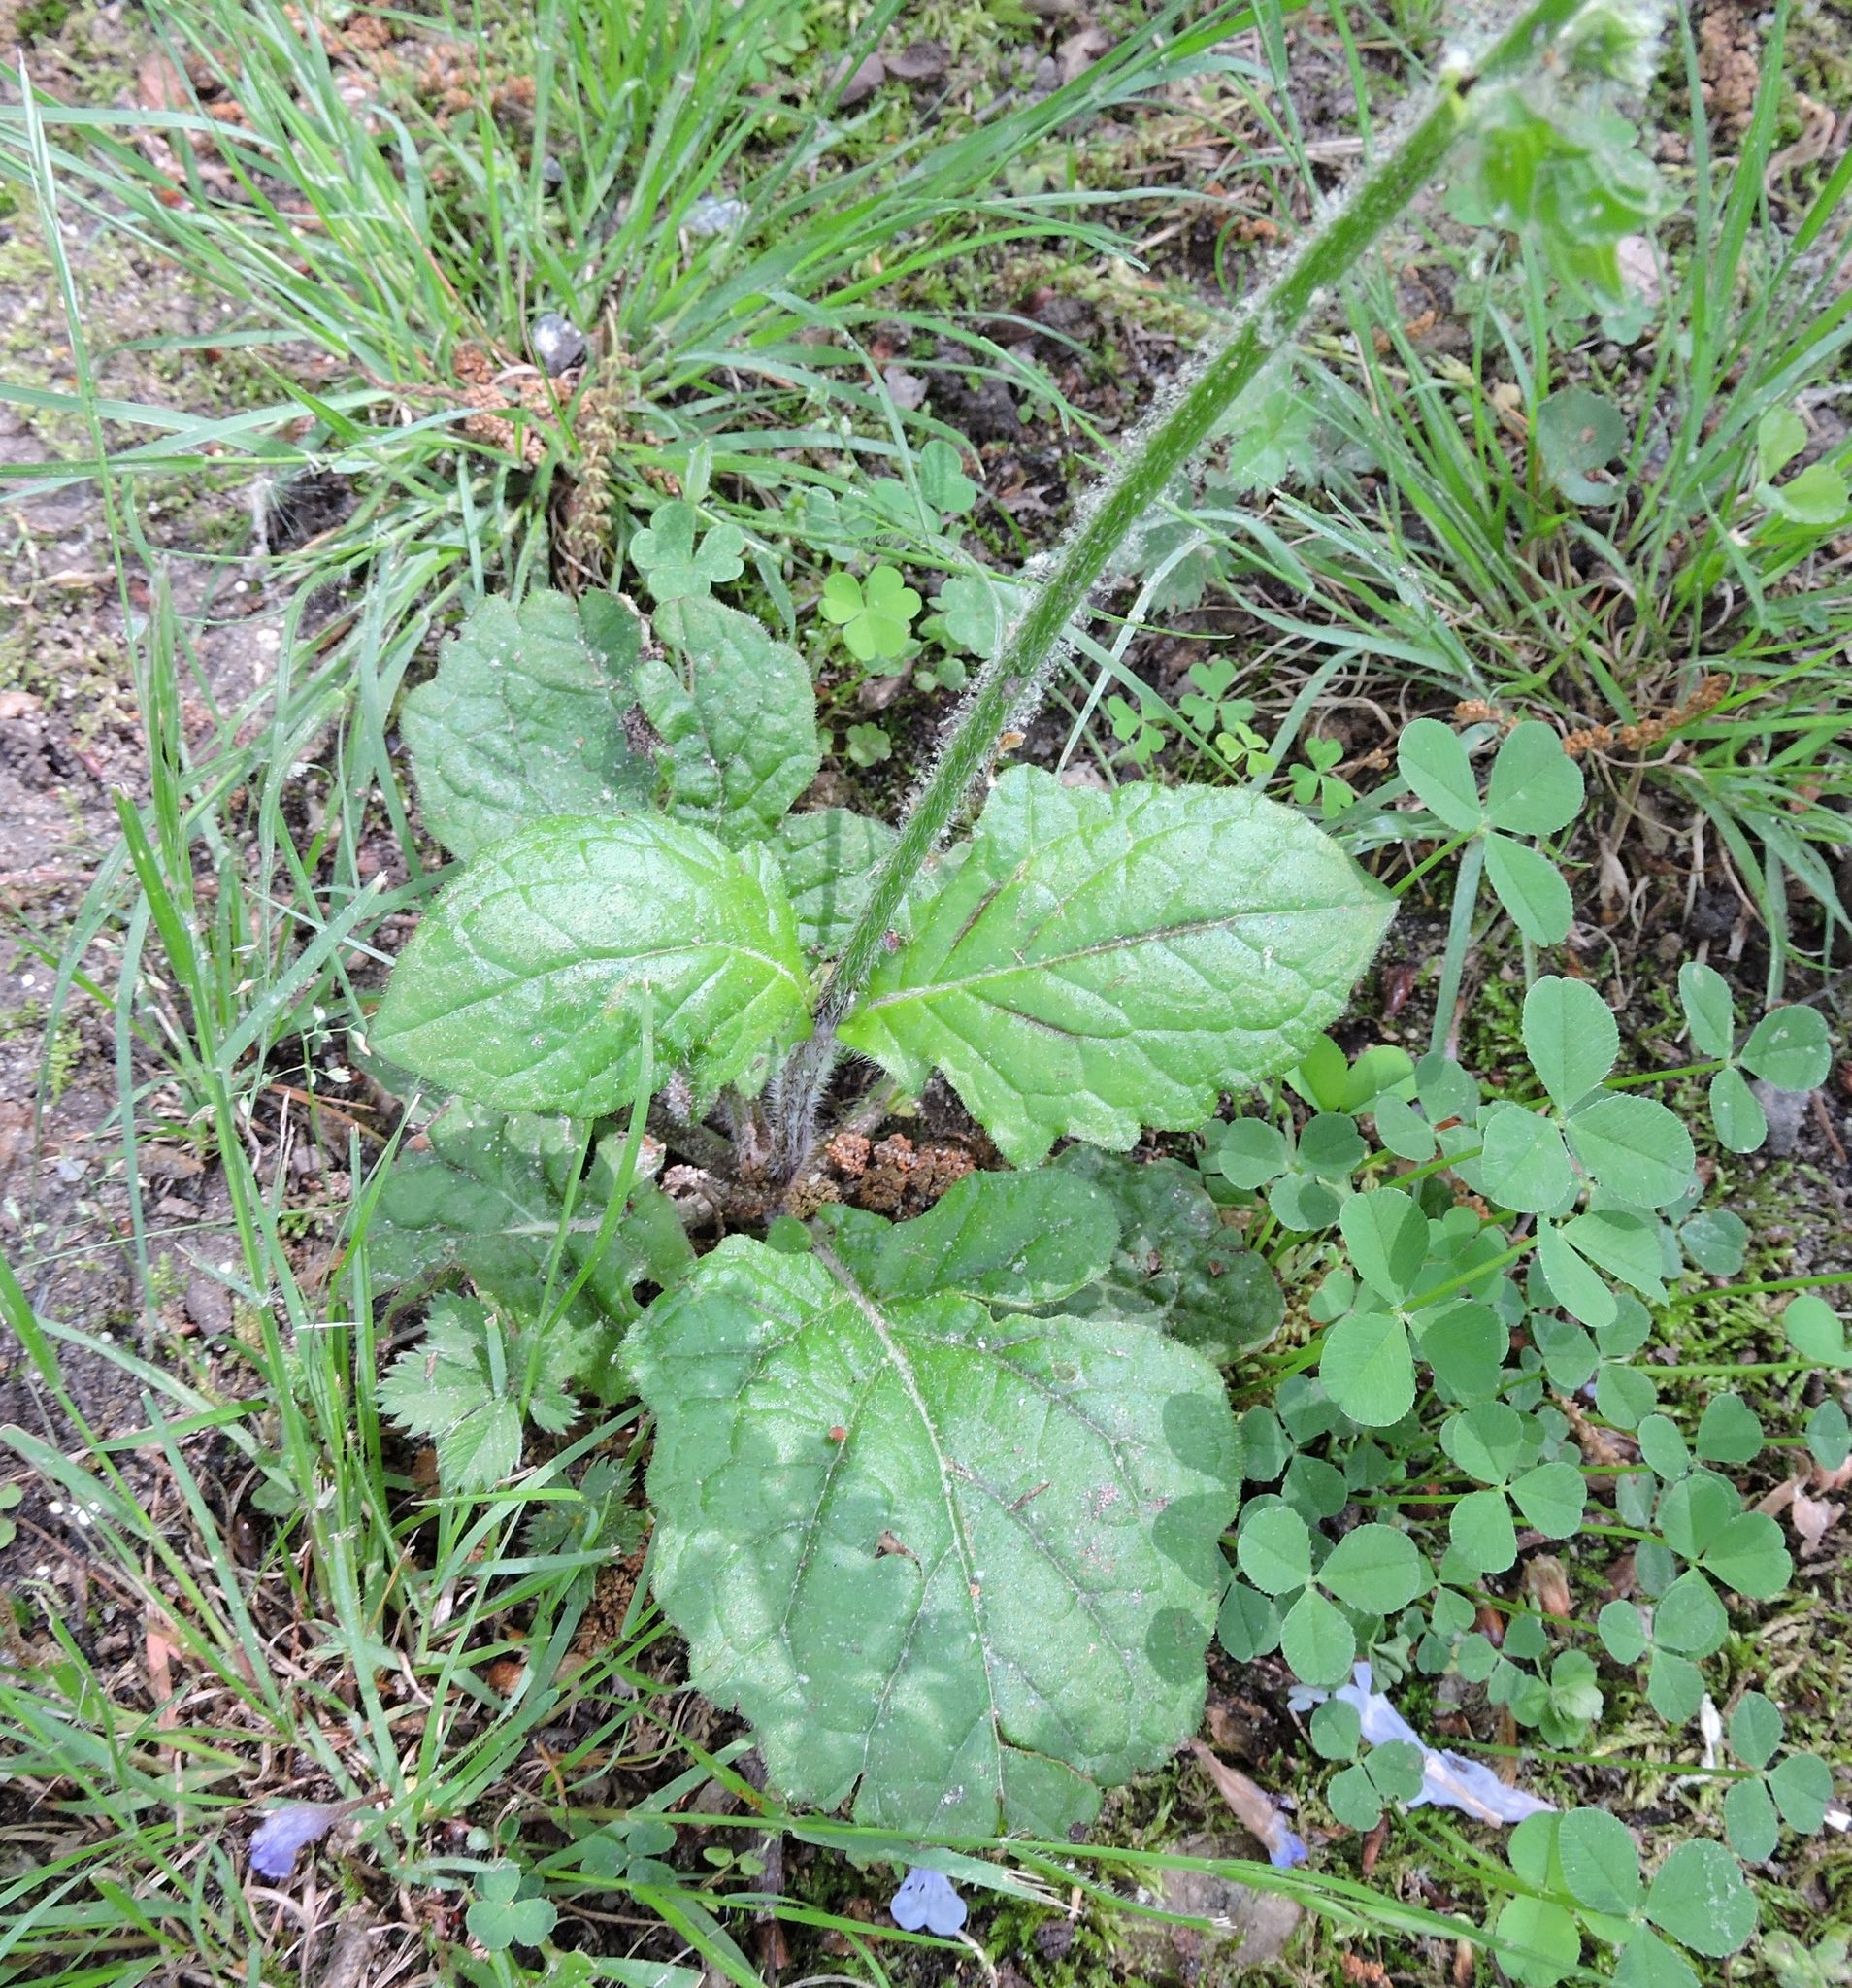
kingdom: Plantae
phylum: Tracheophyta
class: Magnoliopsida
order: Lamiales
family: Lamiaceae
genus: Salvia
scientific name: Salvia lyrata
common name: Cancerweed
